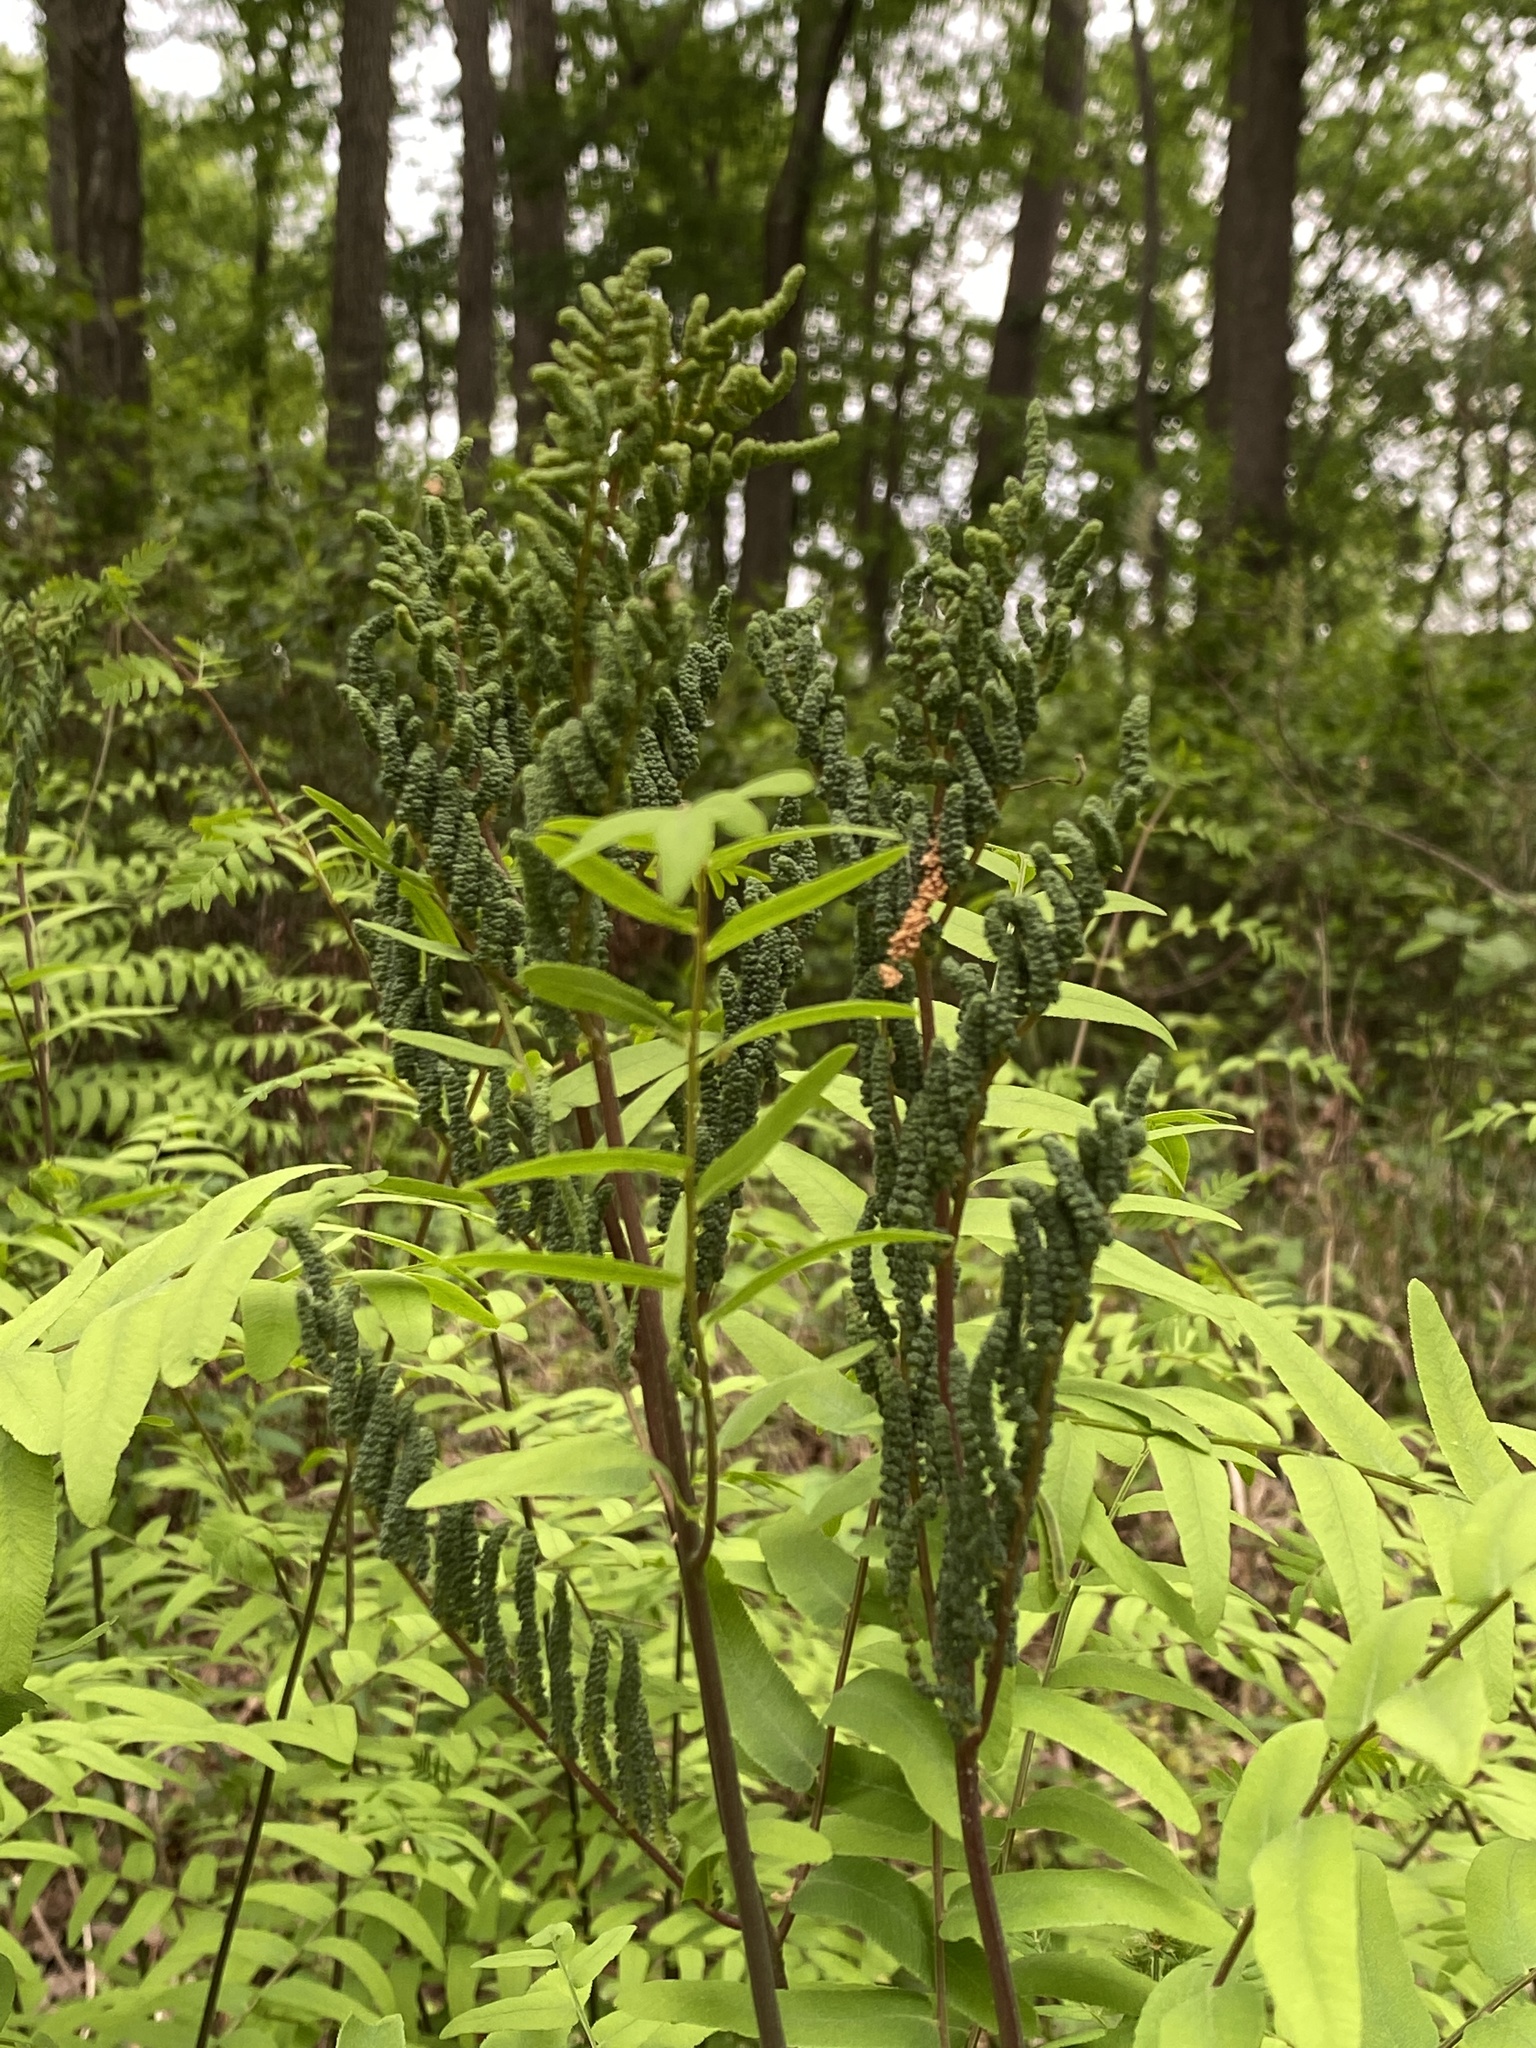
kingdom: Plantae
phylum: Tracheophyta
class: Polypodiopsida
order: Osmundales
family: Osmundaceae
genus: Osmunda
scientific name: Osmunda spectabilis
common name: American royal fern
